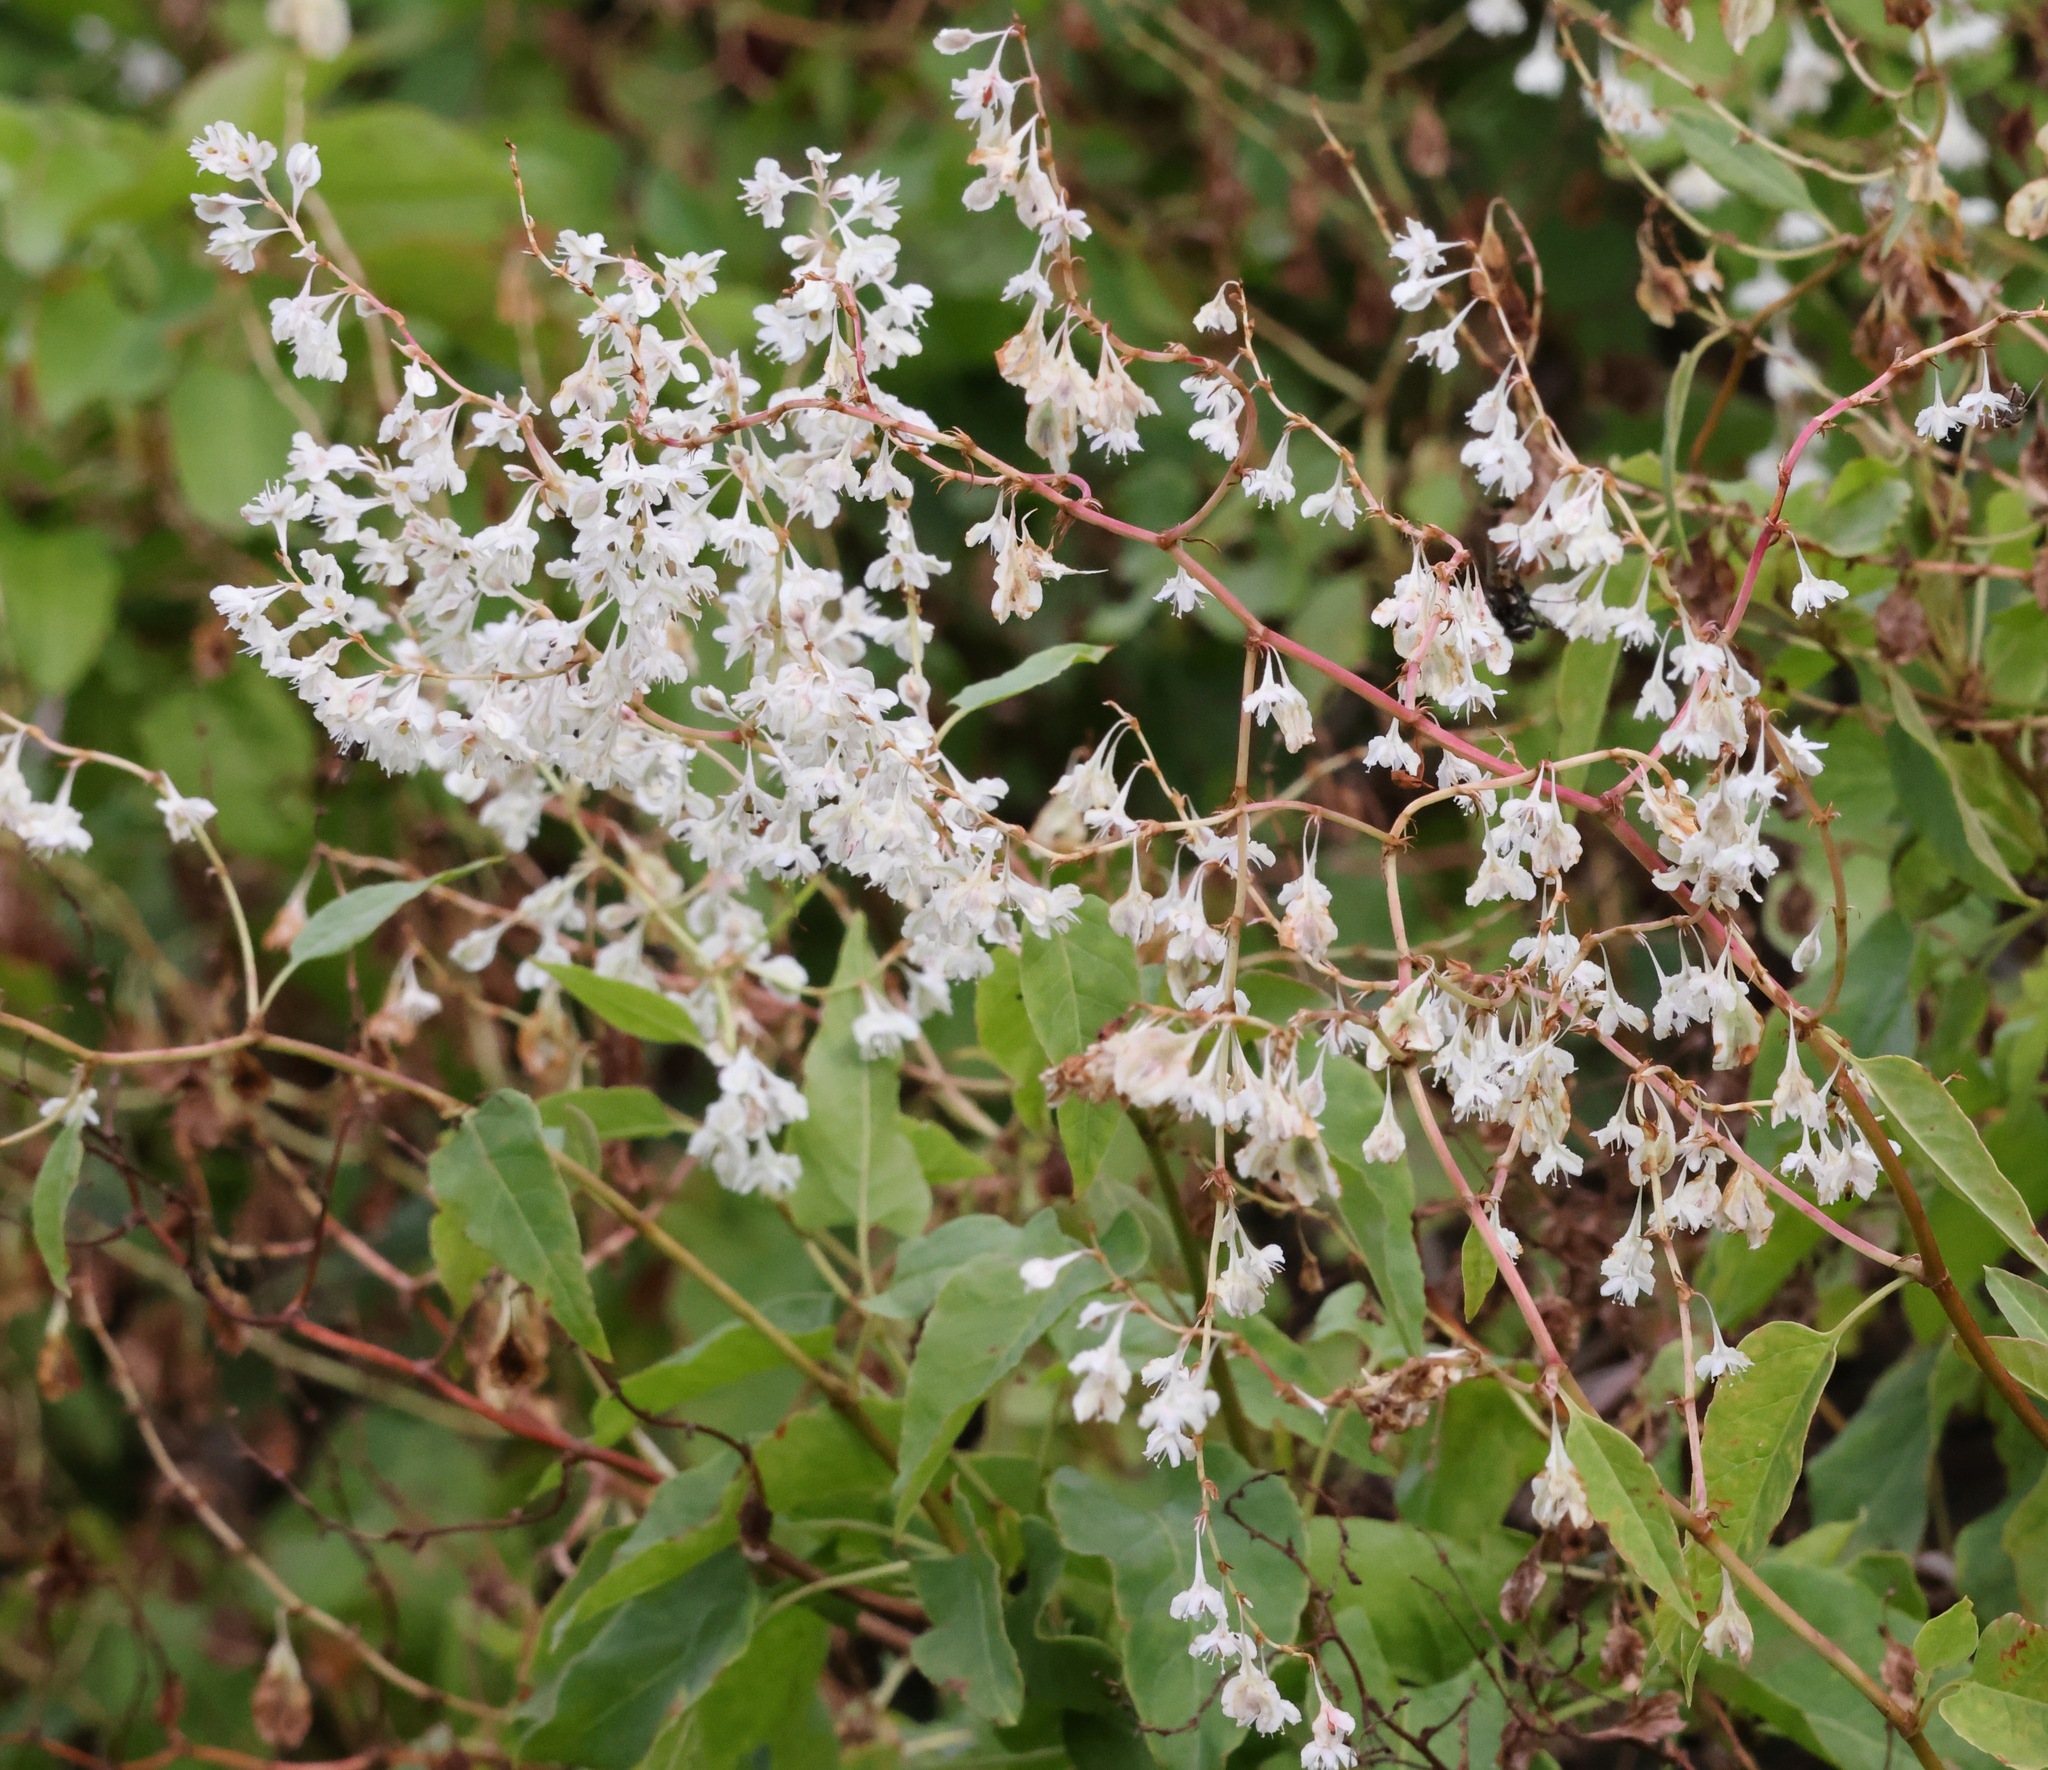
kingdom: Plantae
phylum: Tracheophyta
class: Magnoliopsida
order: Caryophyllales
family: Polygonaceae
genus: Fallopia
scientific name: Fallopia baldschuanica
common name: Russian-vine
